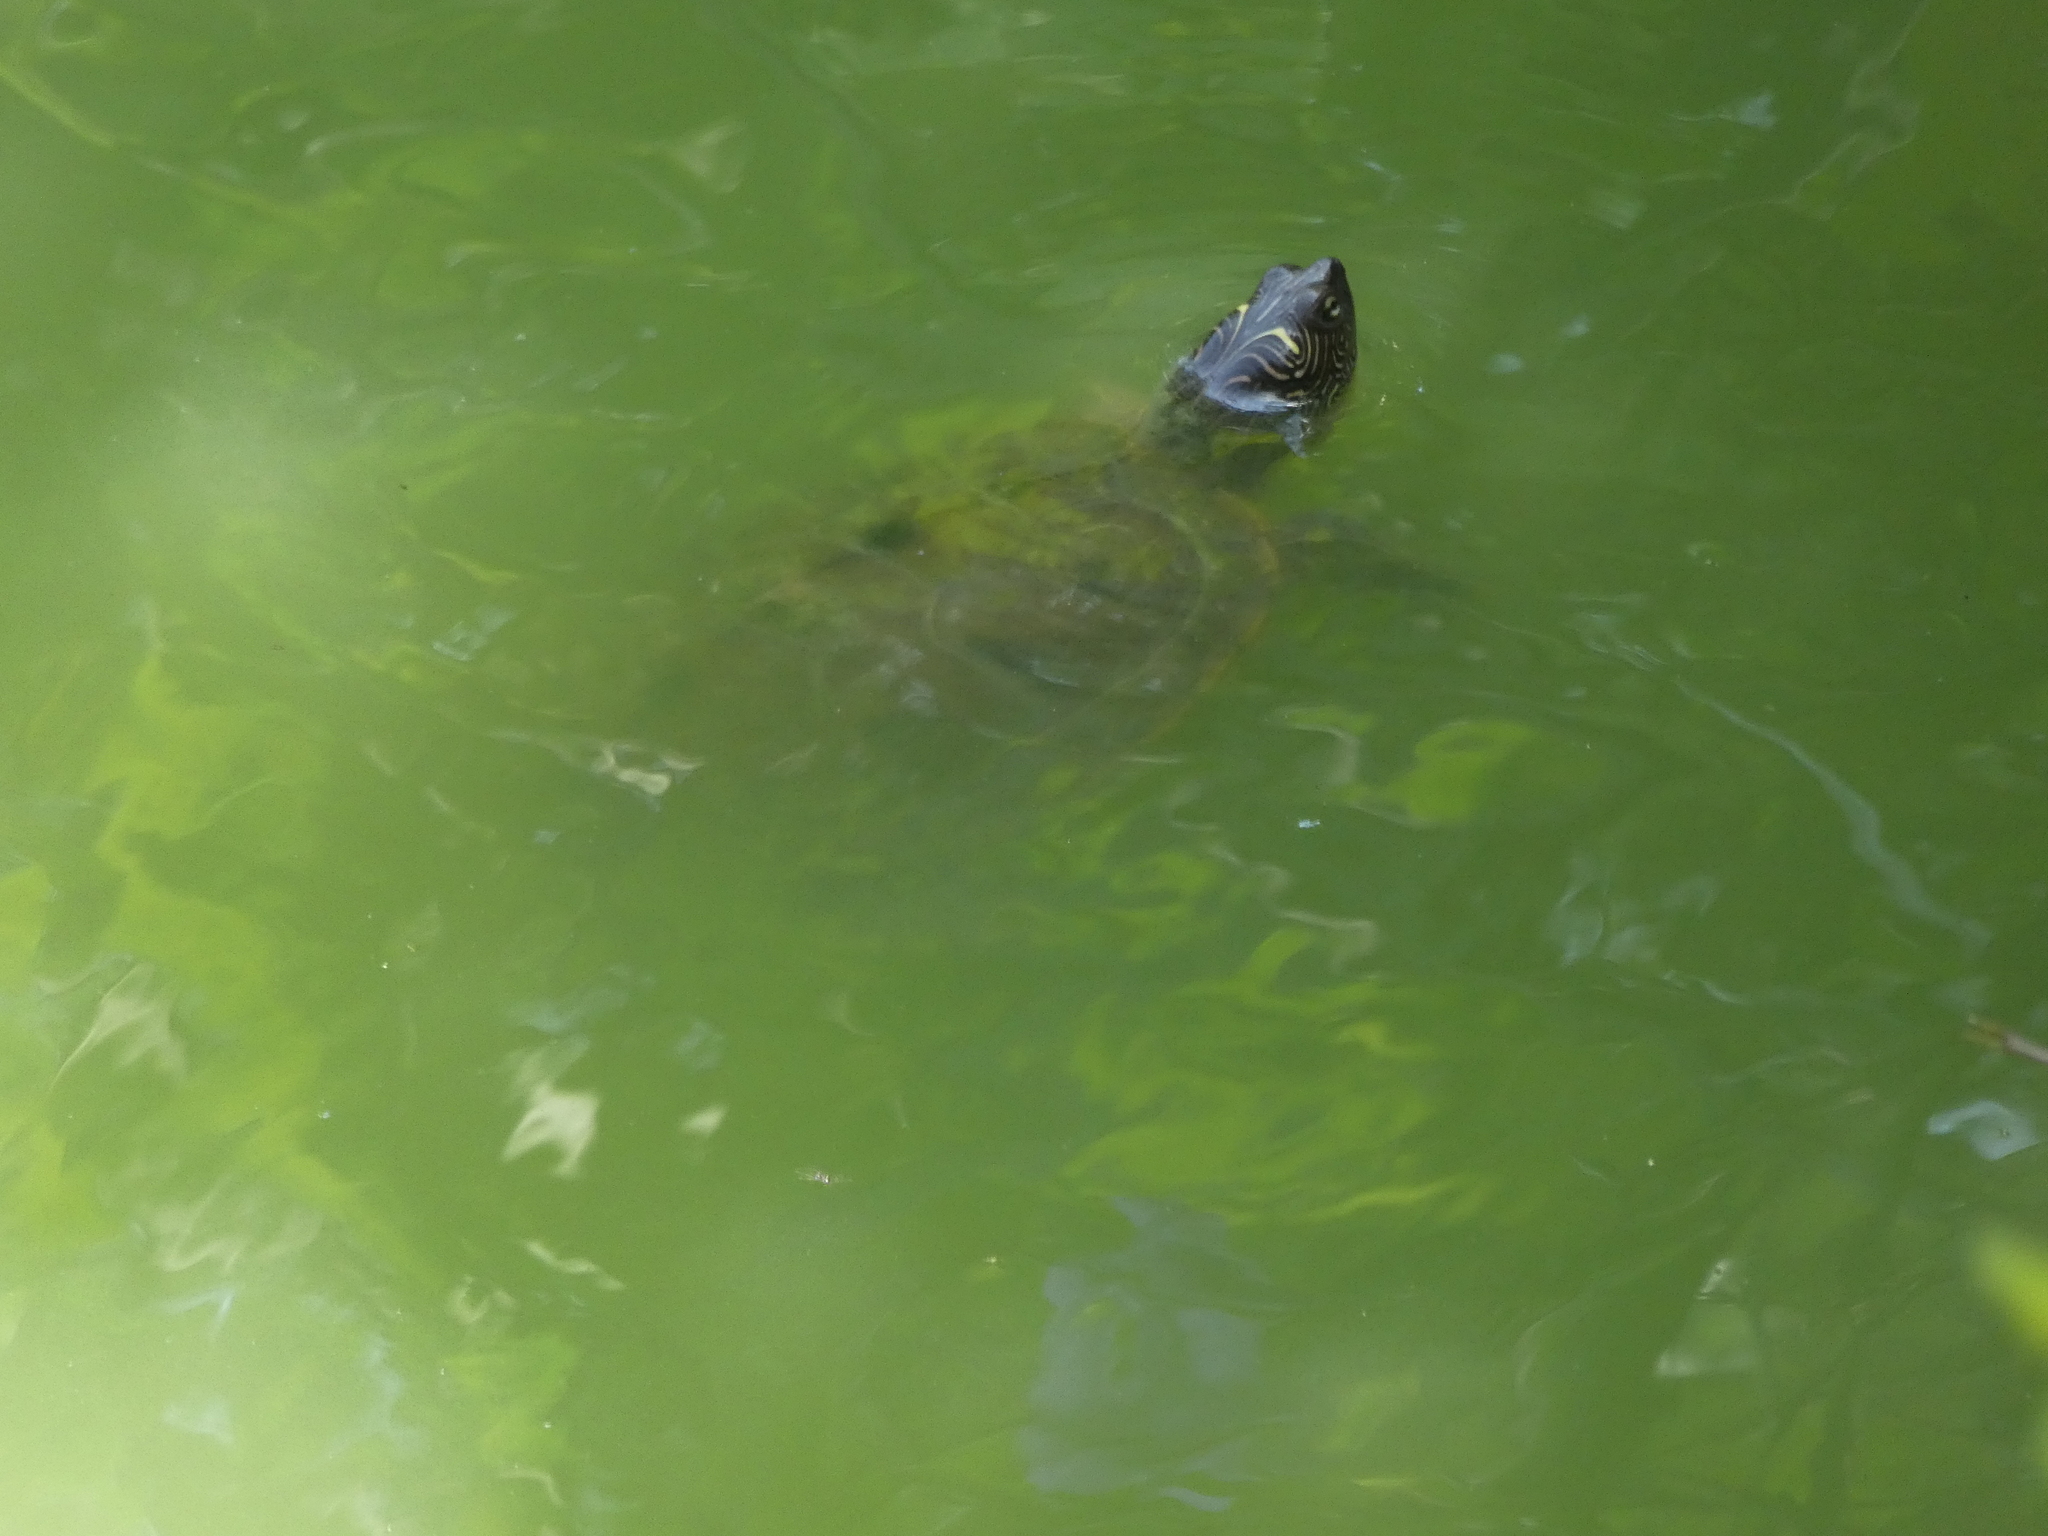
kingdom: Animalia
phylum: Chordata
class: Testudines
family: Emydidae
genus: Graptemys
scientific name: Graptemys pseudogeographica
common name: False map turtle
